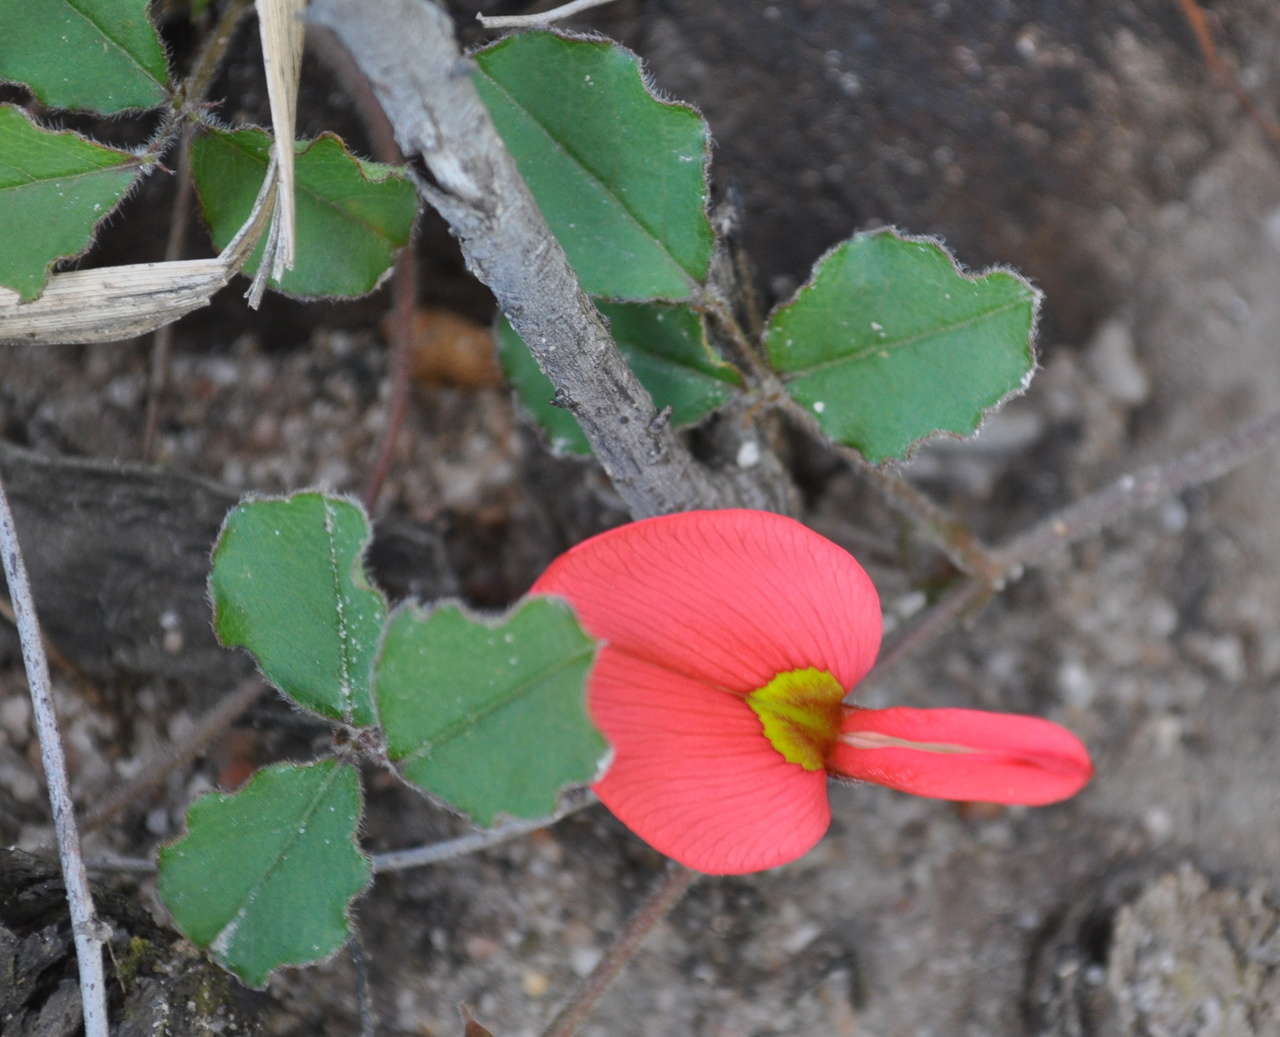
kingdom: Plantae
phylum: Tracheophyta
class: Magnoliopsida
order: Fabales
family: Fabaceae
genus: Kennedia
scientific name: Kennedia prostrata
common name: Running-postman
